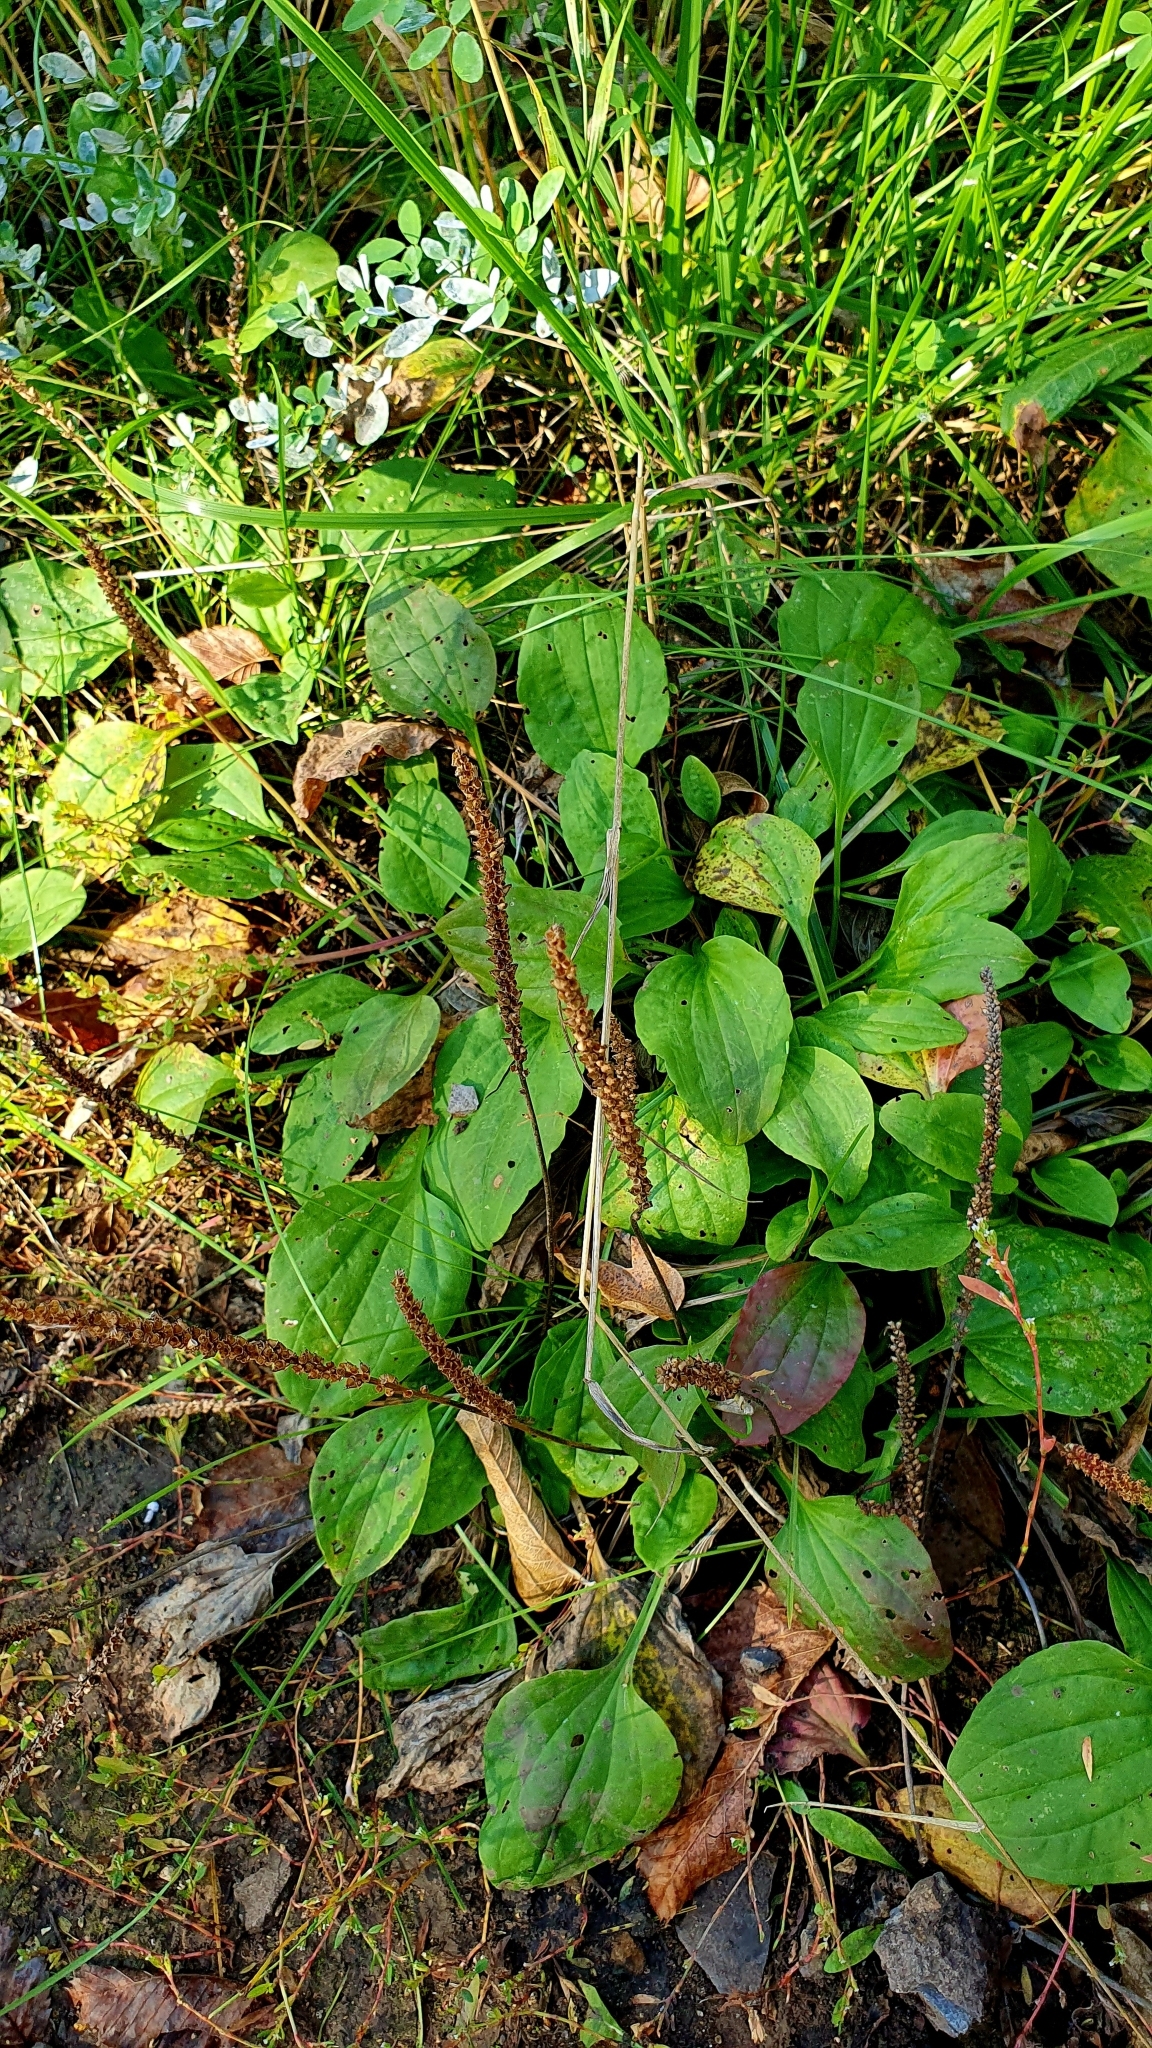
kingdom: Plantae
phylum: Tracheophyta
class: Magnoliopsida
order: Lamiales
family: Plantaginaceae
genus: Plantago
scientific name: Plantago major
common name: Common plantain
